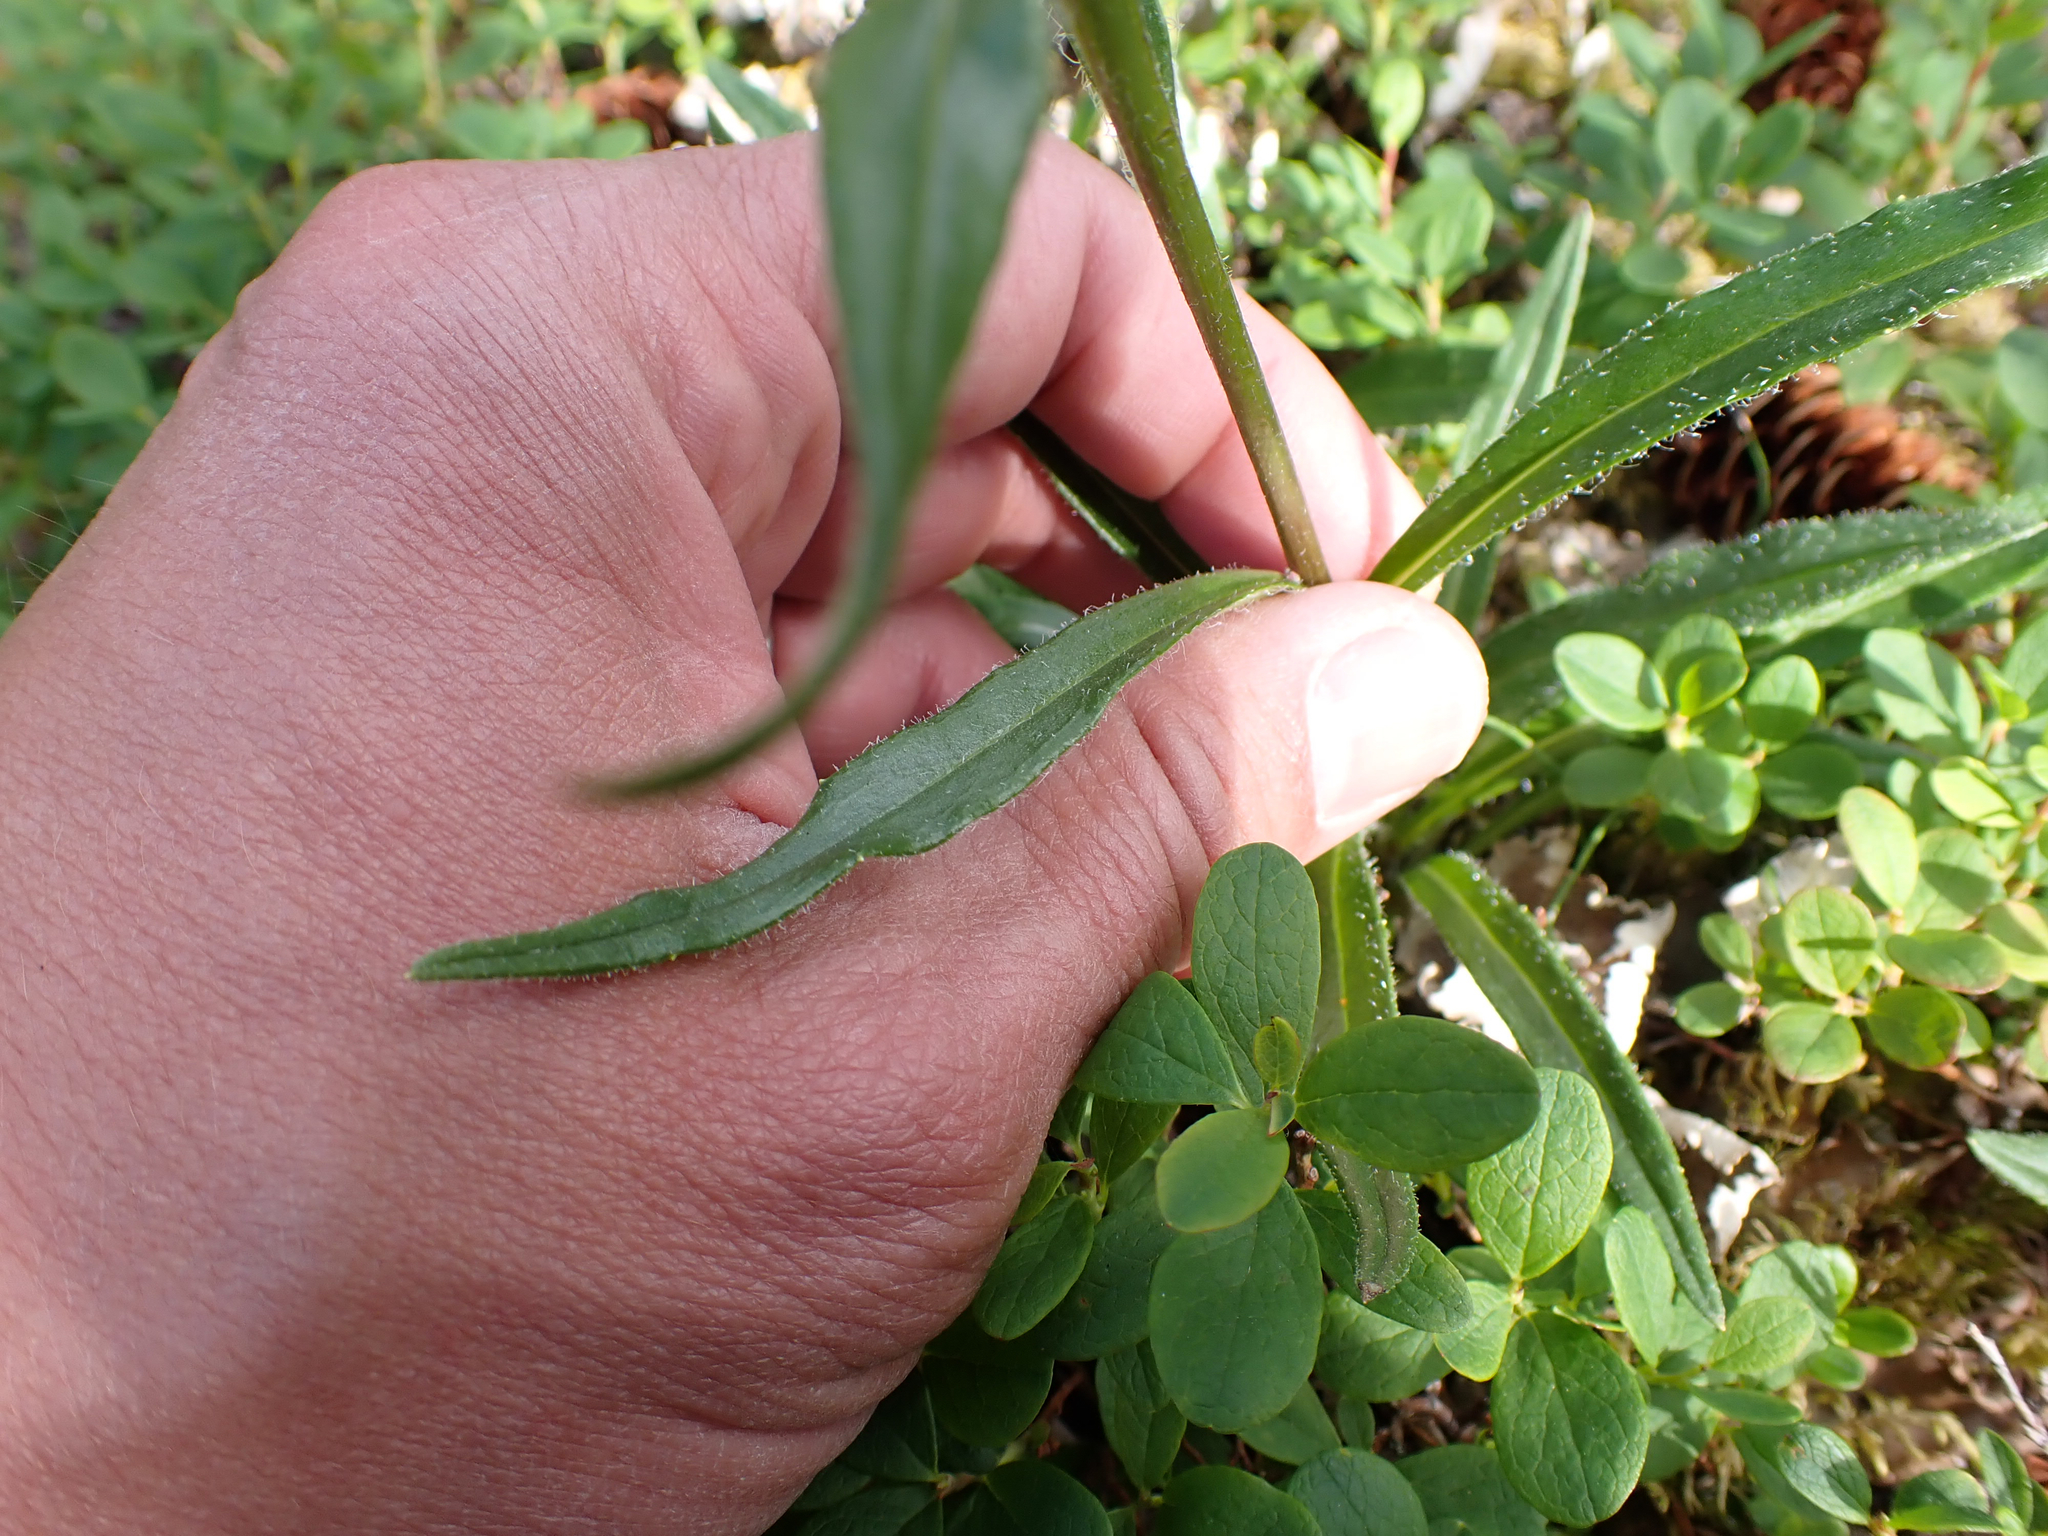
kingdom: Plantae
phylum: Tracheophyta
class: Magnoliopsida
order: Asterales
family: Asteraceae
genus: Saussurea
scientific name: Saussurea angustifolia
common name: Common saussurea
